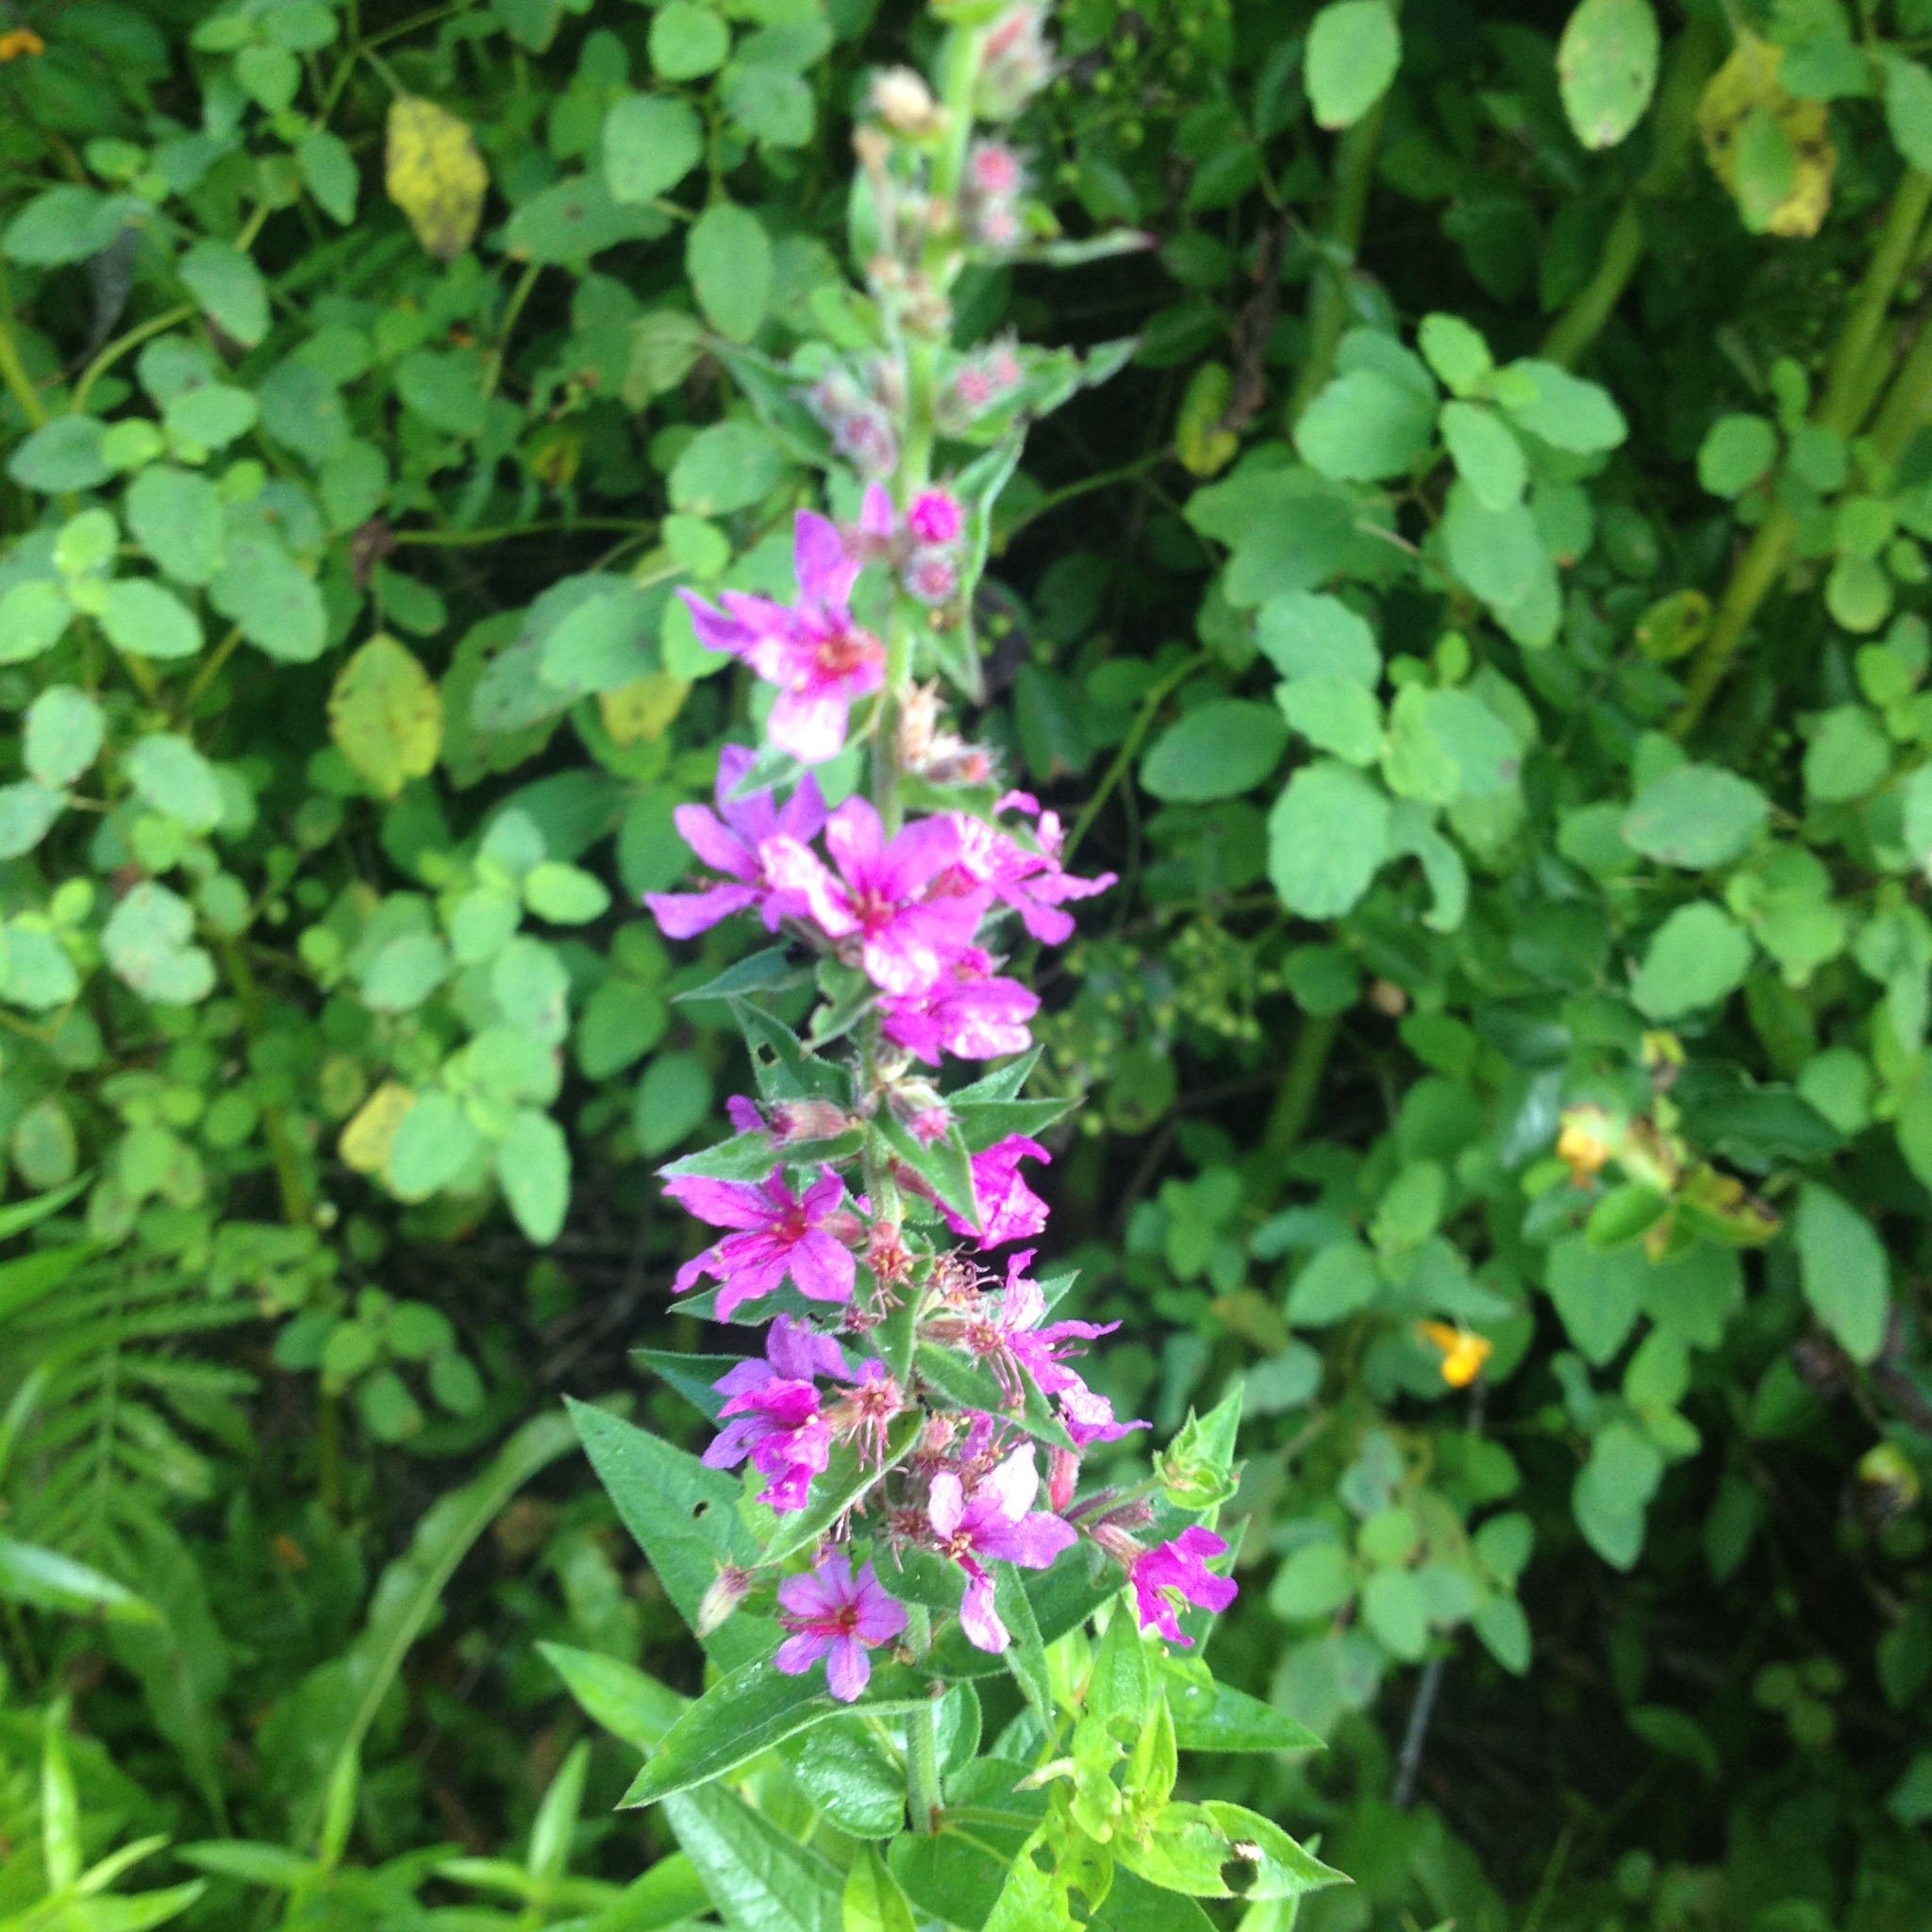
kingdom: Plantae
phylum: Tracheophyta
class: Magnoliopsida
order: Myrtales
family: Lythraceae
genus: Lythrum
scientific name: Lythrum salicaria
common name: Purple loosestrife
